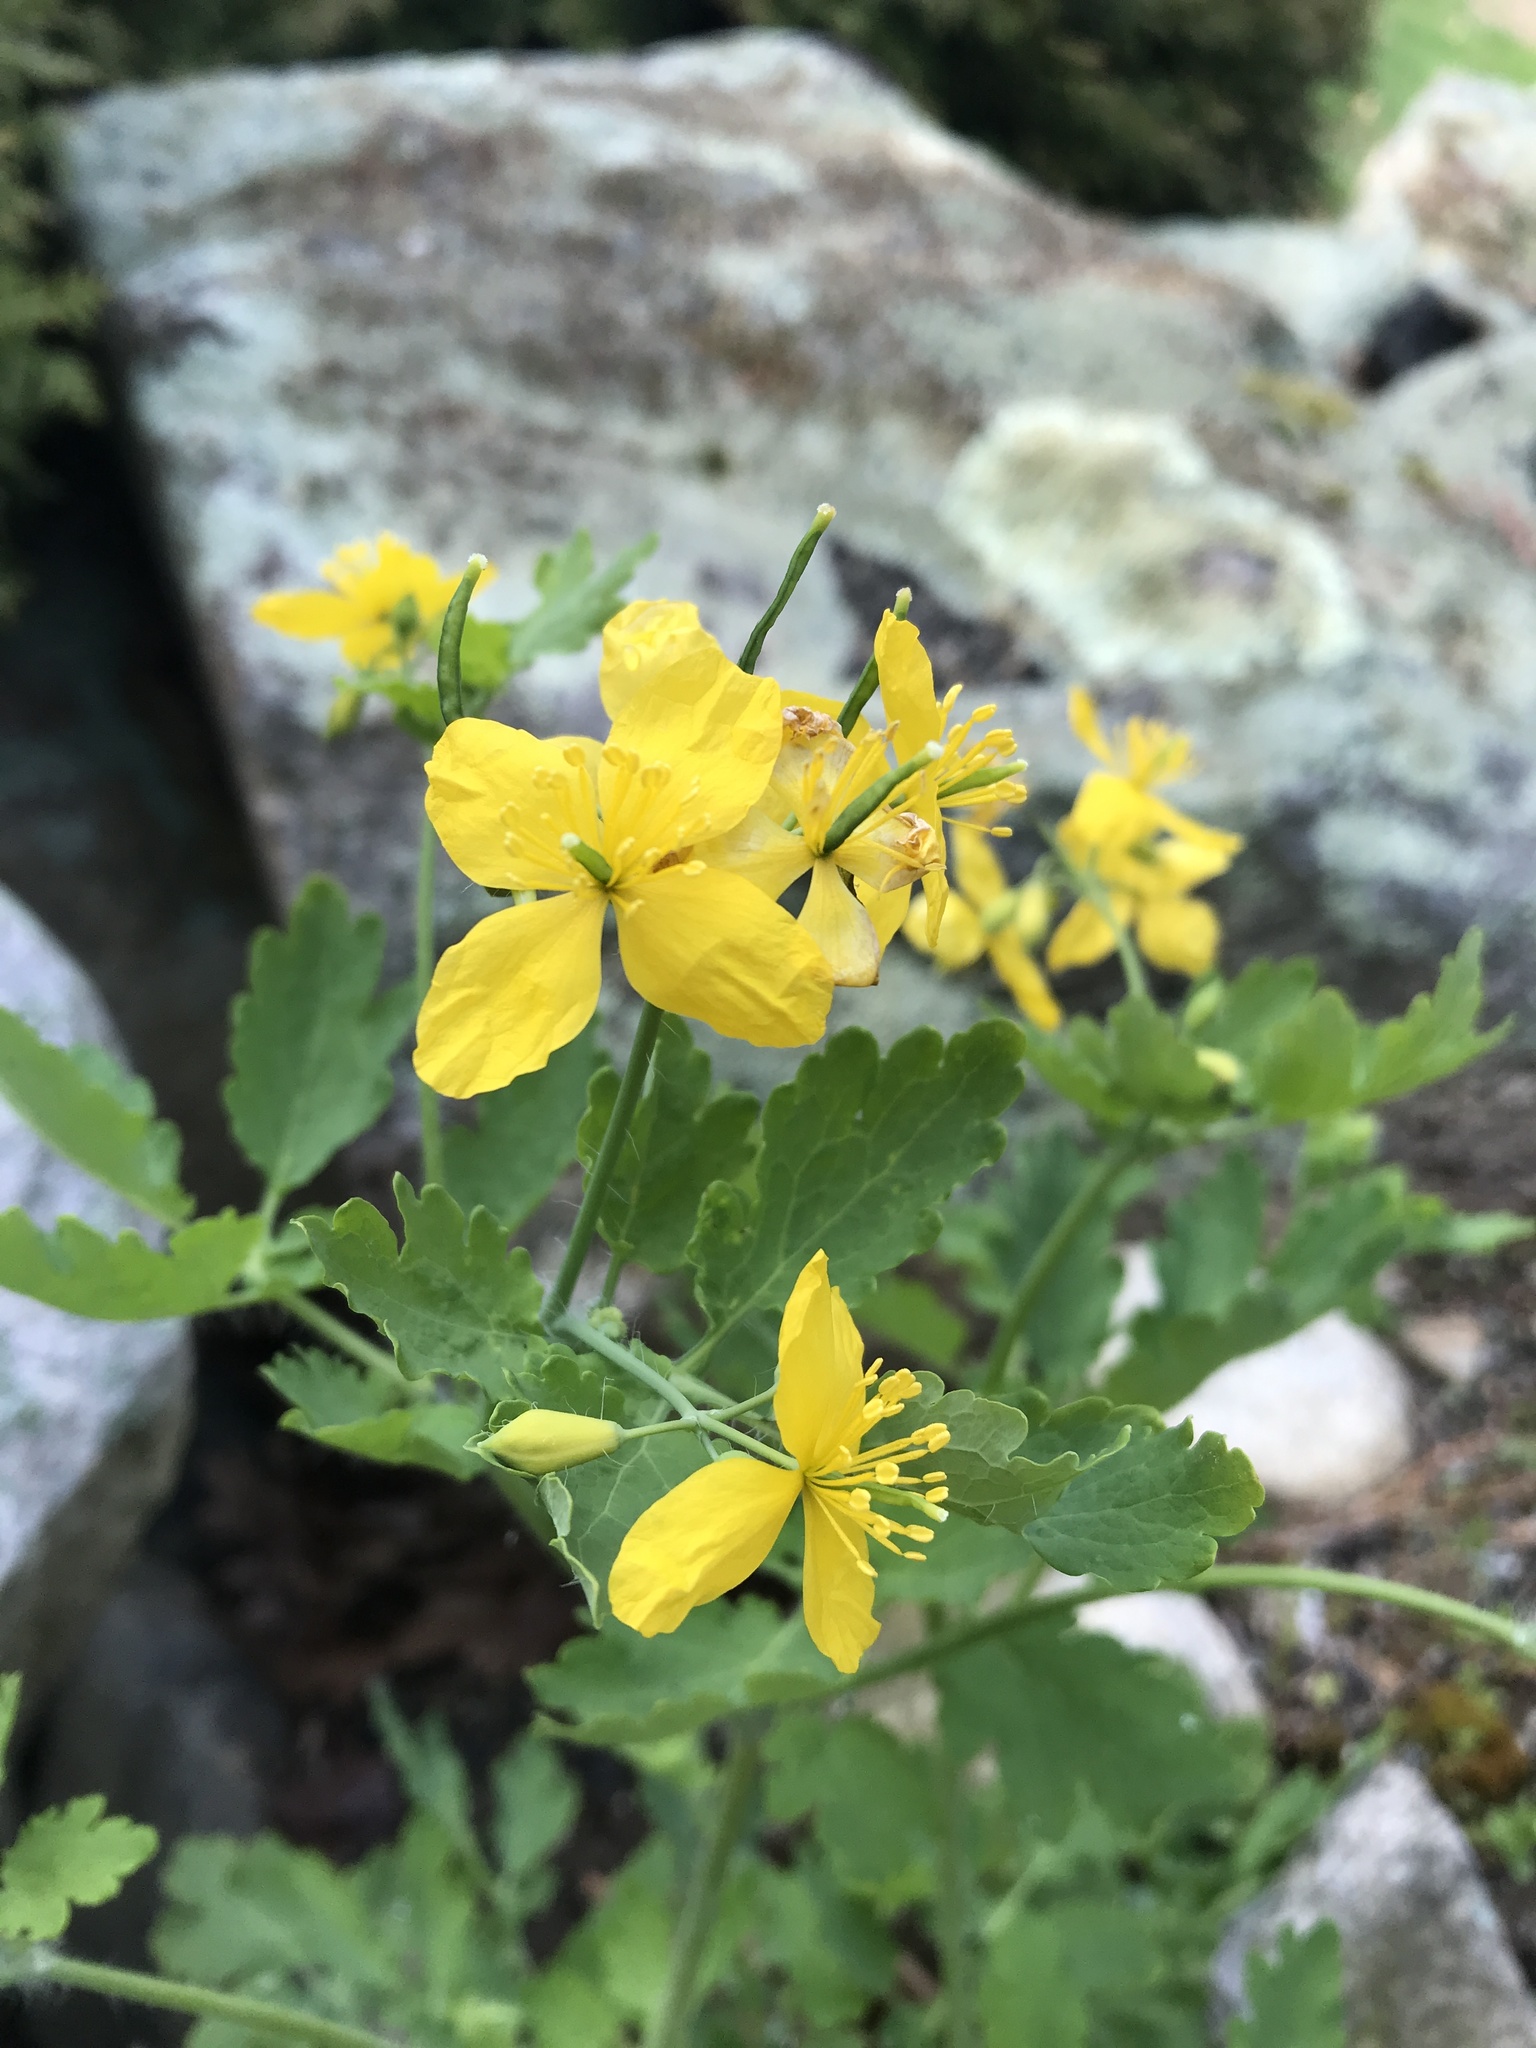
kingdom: Plantae
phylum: Tracheophyta
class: Magnoliopsida
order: Ranunculales
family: Papaveraceae
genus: Chelidonium
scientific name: Chelidonium majus
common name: Greater celandine
